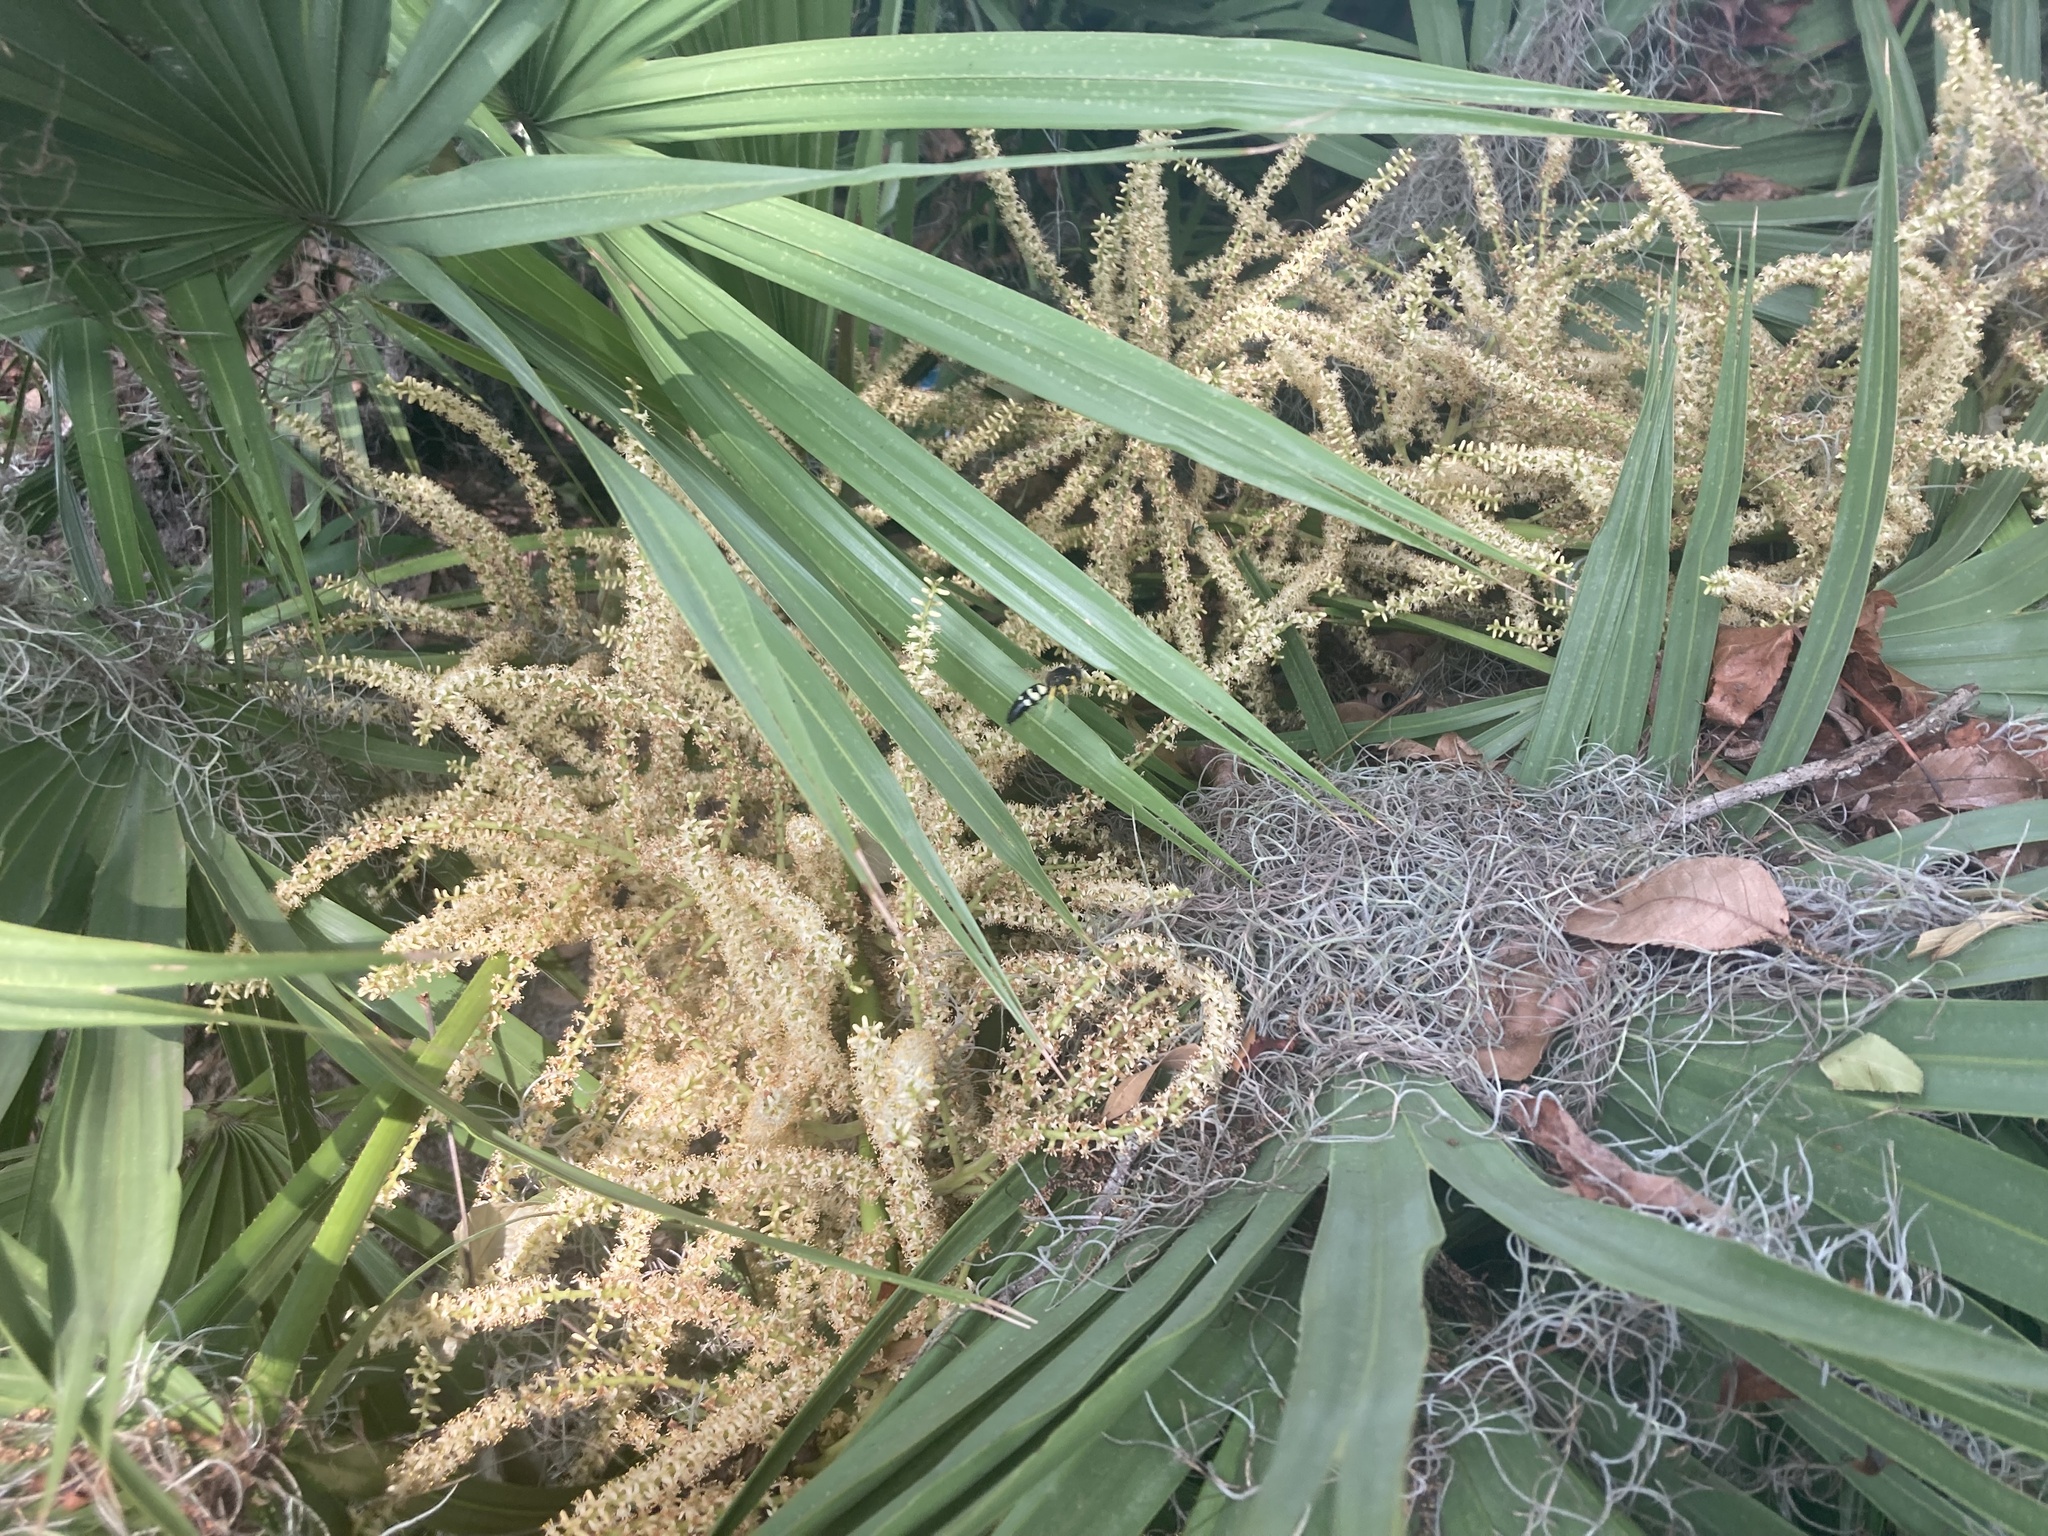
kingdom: Plantae
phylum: Tracheophyta
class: Liliopsida
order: Arecales
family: Arecaceae
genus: Serenoa
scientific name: Serenoa repens
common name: Saw-palmetto
